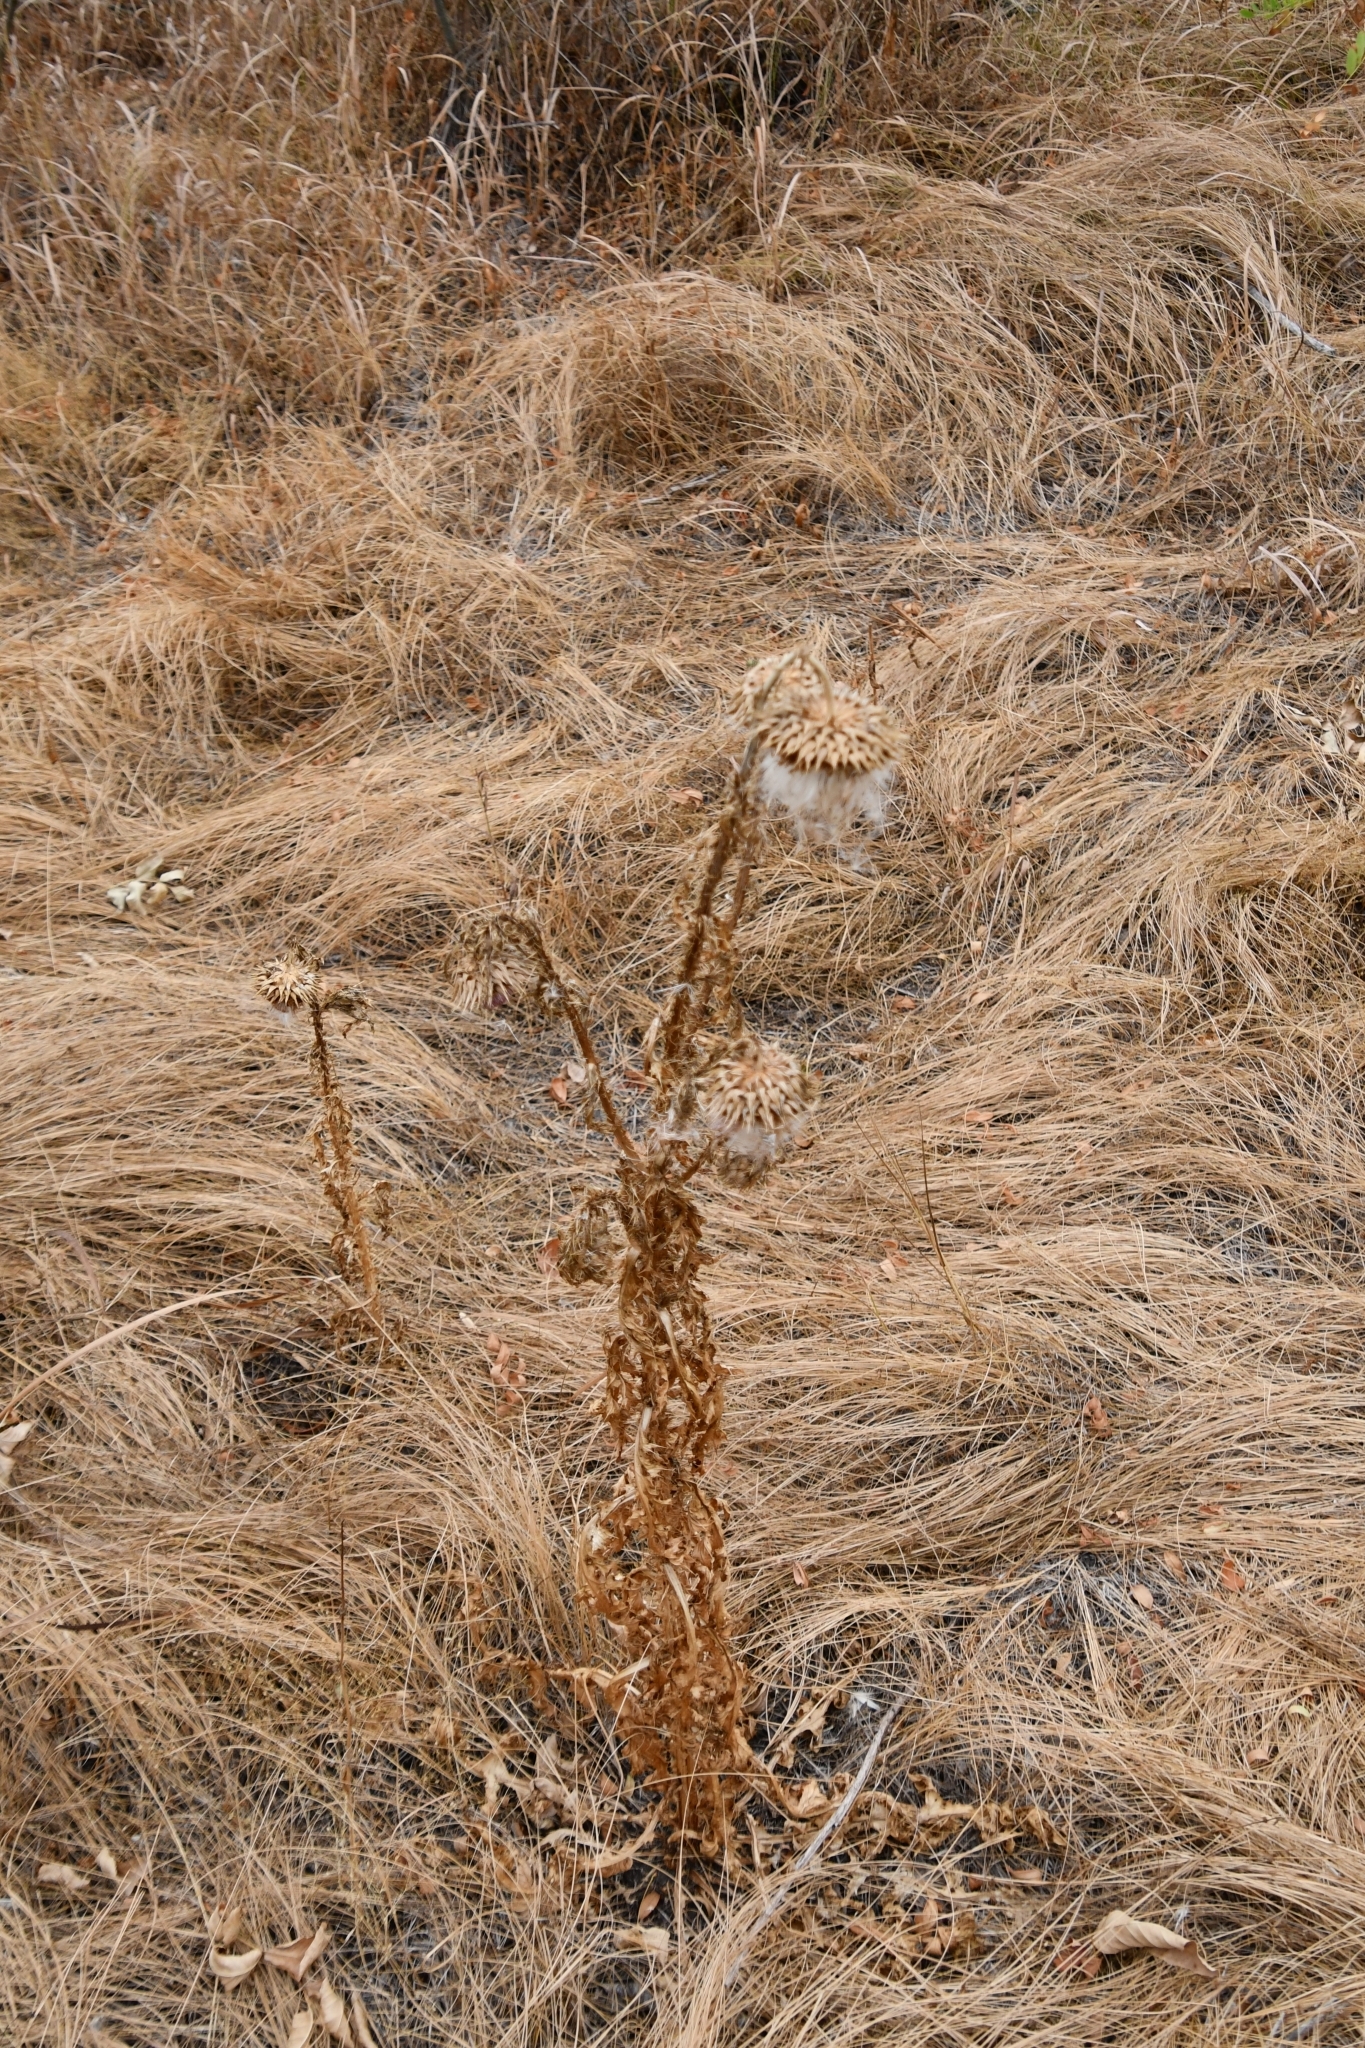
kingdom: Plantae
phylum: Tracheophyta
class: Magnoliopsida
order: Asterales
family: Asteraceae
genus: Carduus
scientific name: Carduus nutans
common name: Musk thistle
